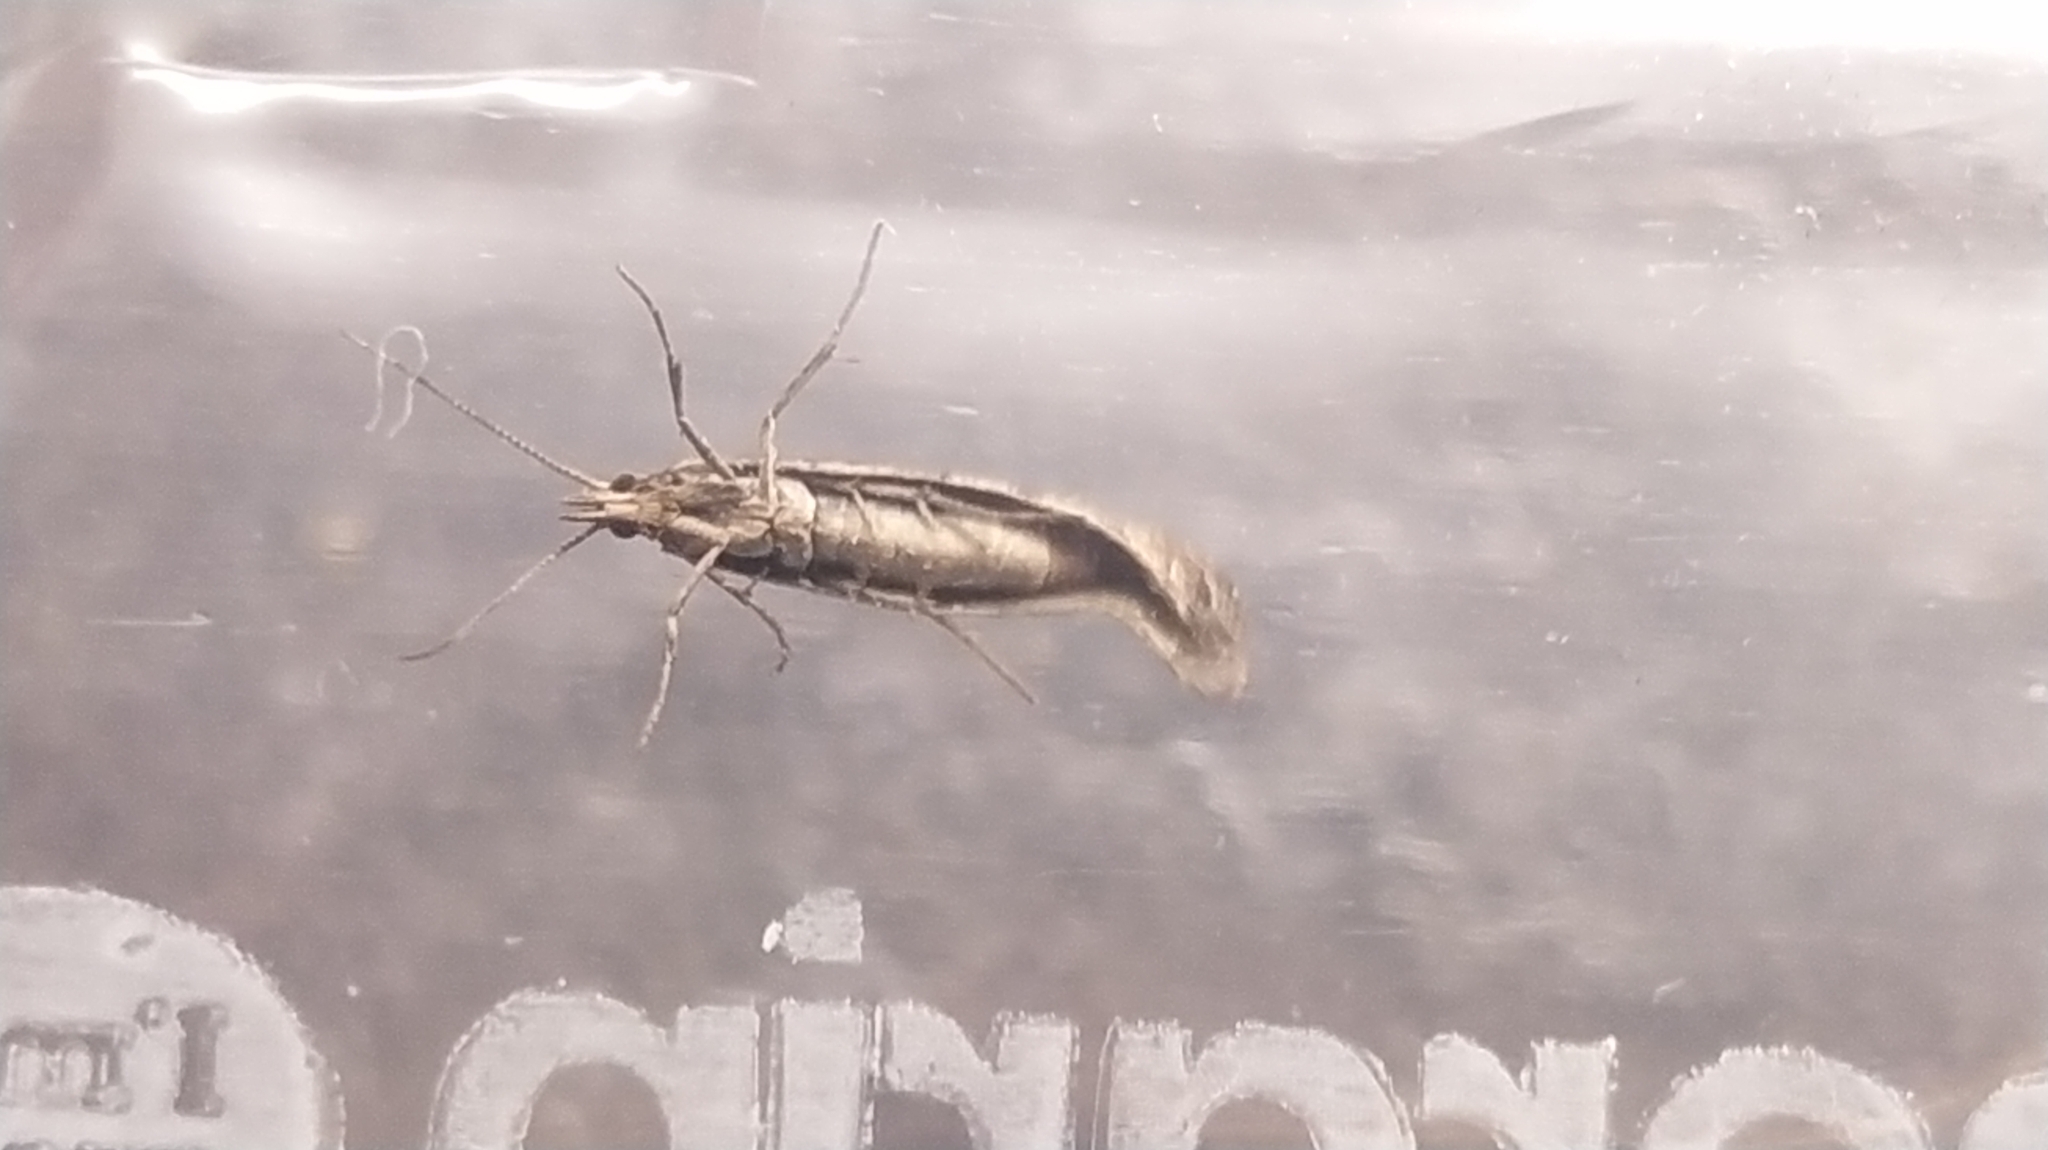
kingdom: Animalia
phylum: Arthropoda
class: Insecta
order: Lepidoptera
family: Plutellidae
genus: Plutella
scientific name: Plutella xylostella
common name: Diamond-back moth
